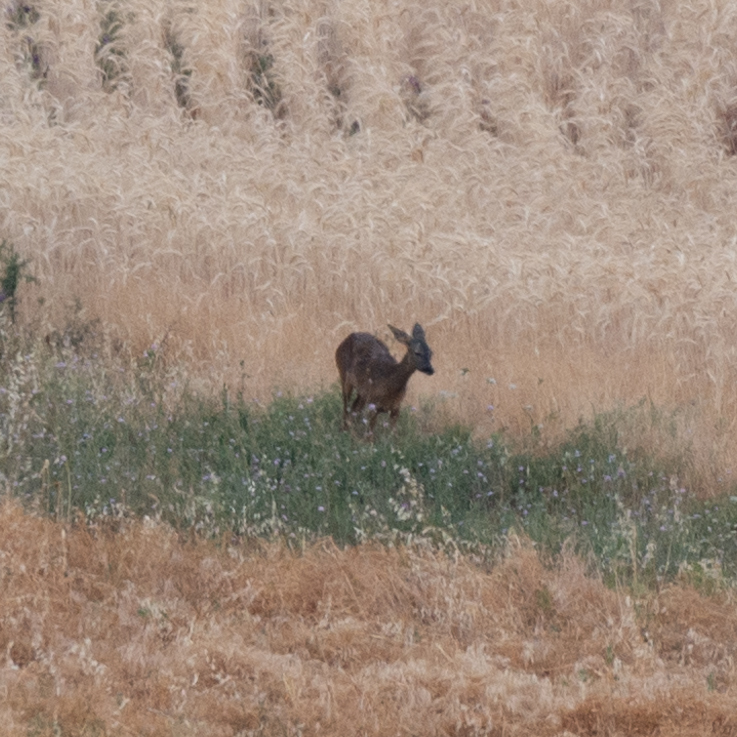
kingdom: Animalia
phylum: Chordata
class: Mammalia
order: Artiodactyla
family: Cervidae
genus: Capreolus
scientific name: Capreolus capreolus
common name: Western roe deer
